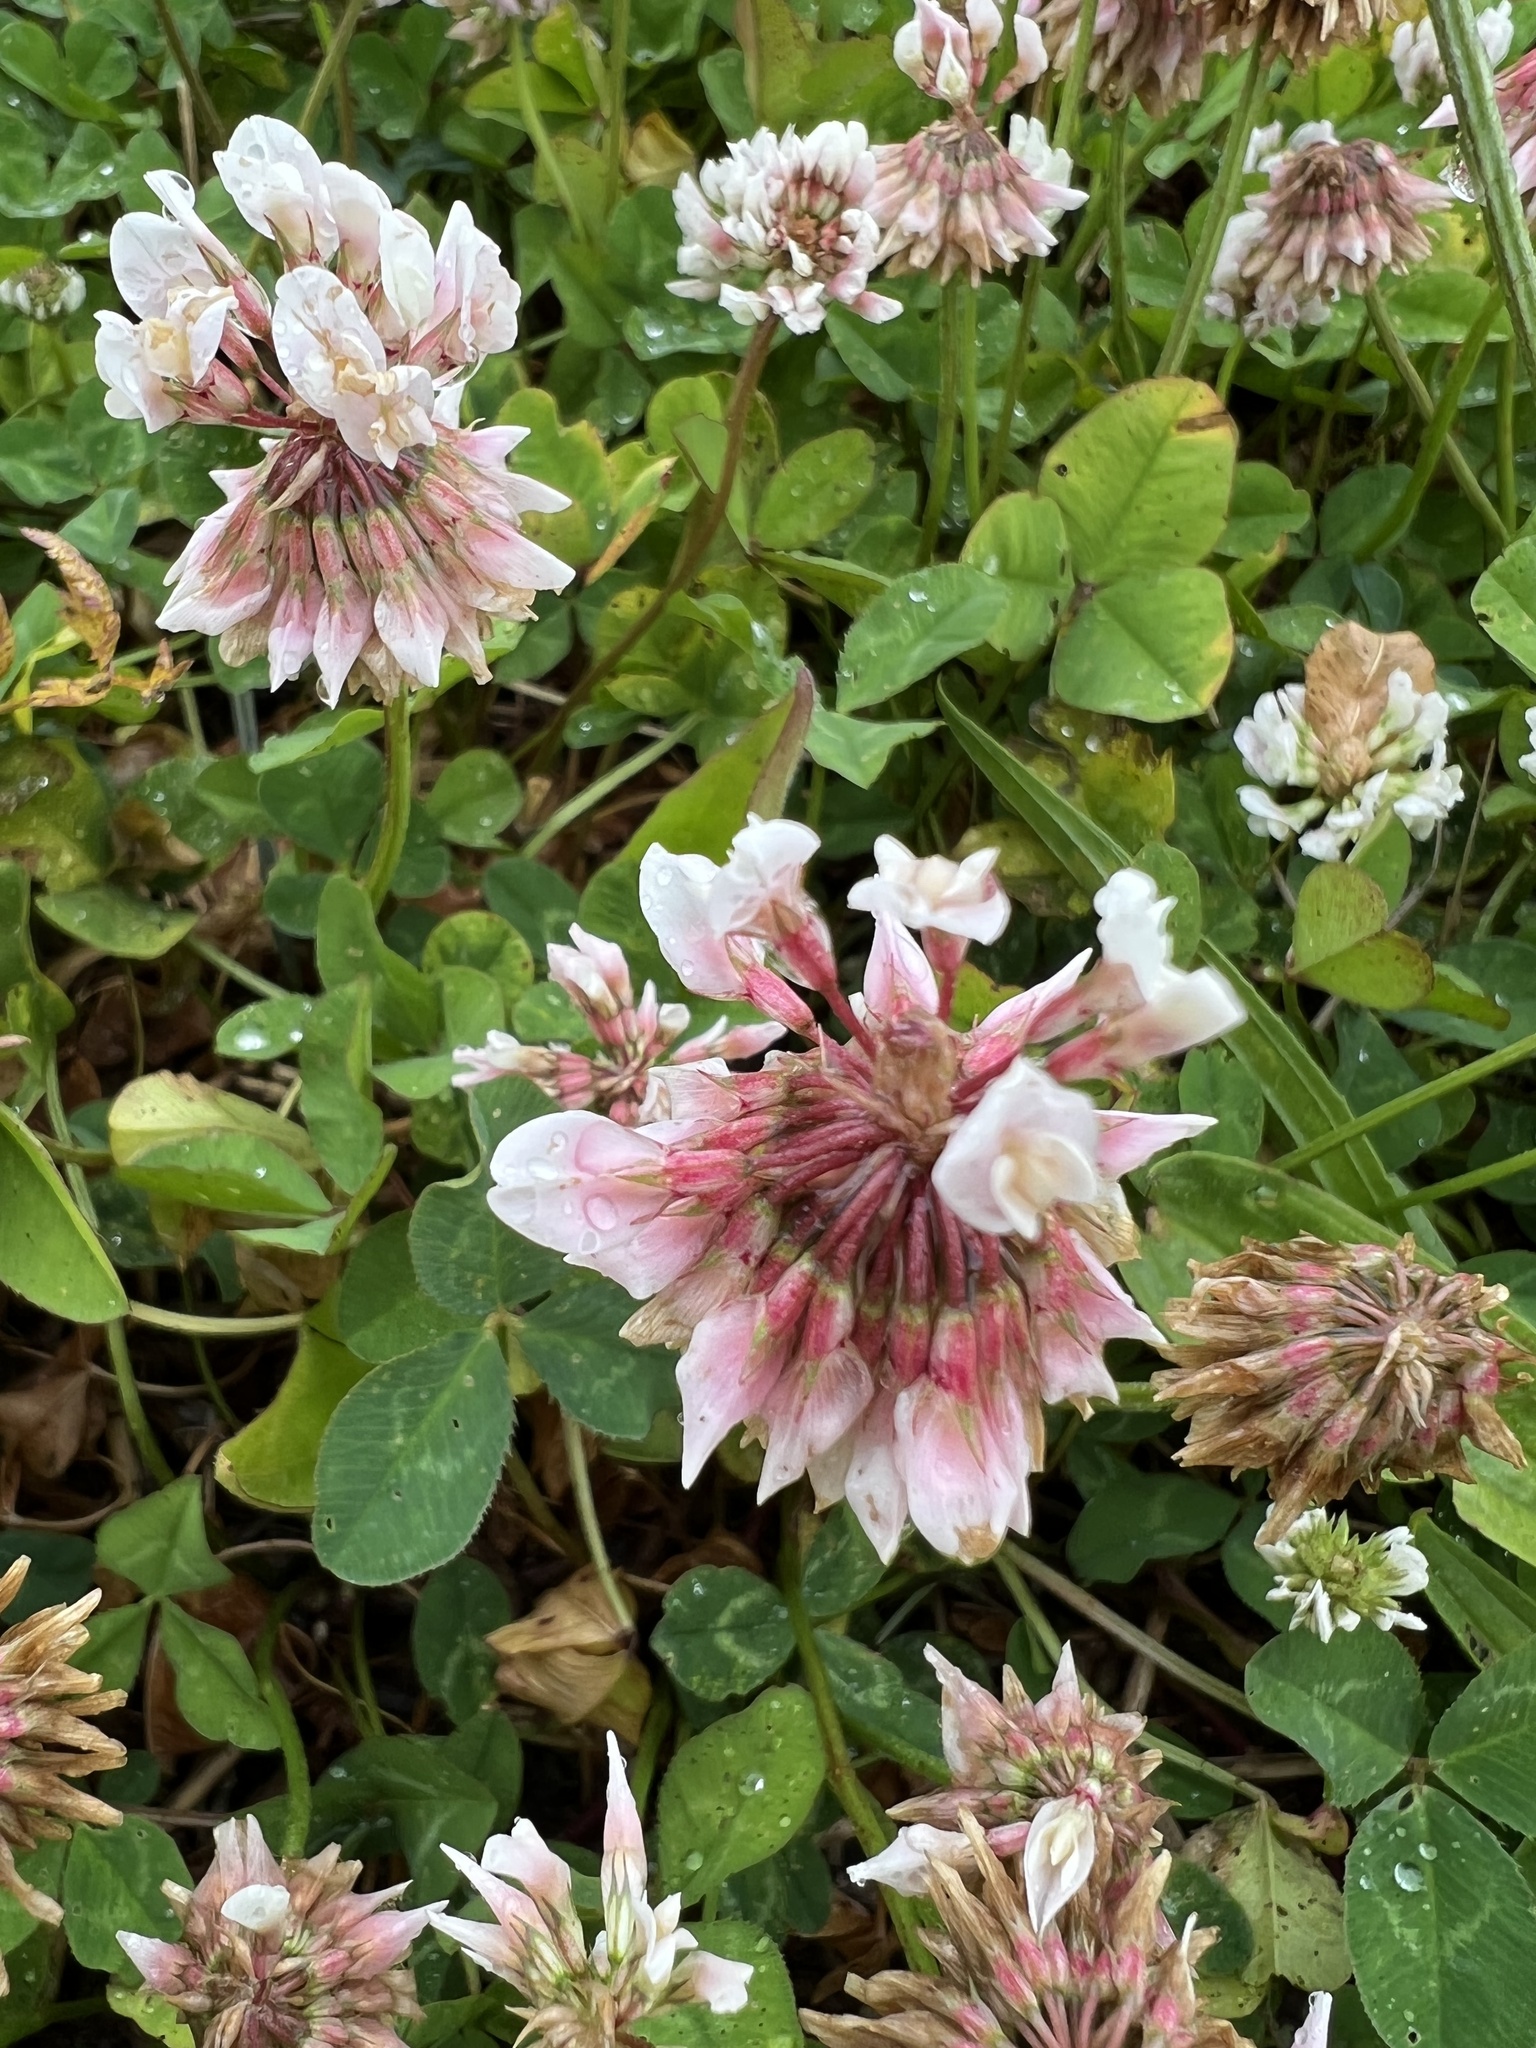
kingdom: Plantae
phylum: Tracheophyta
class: Magnoliopsida
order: Fabales
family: Fabaceae
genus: Trifolium
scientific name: Trifolium repens
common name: White clover
